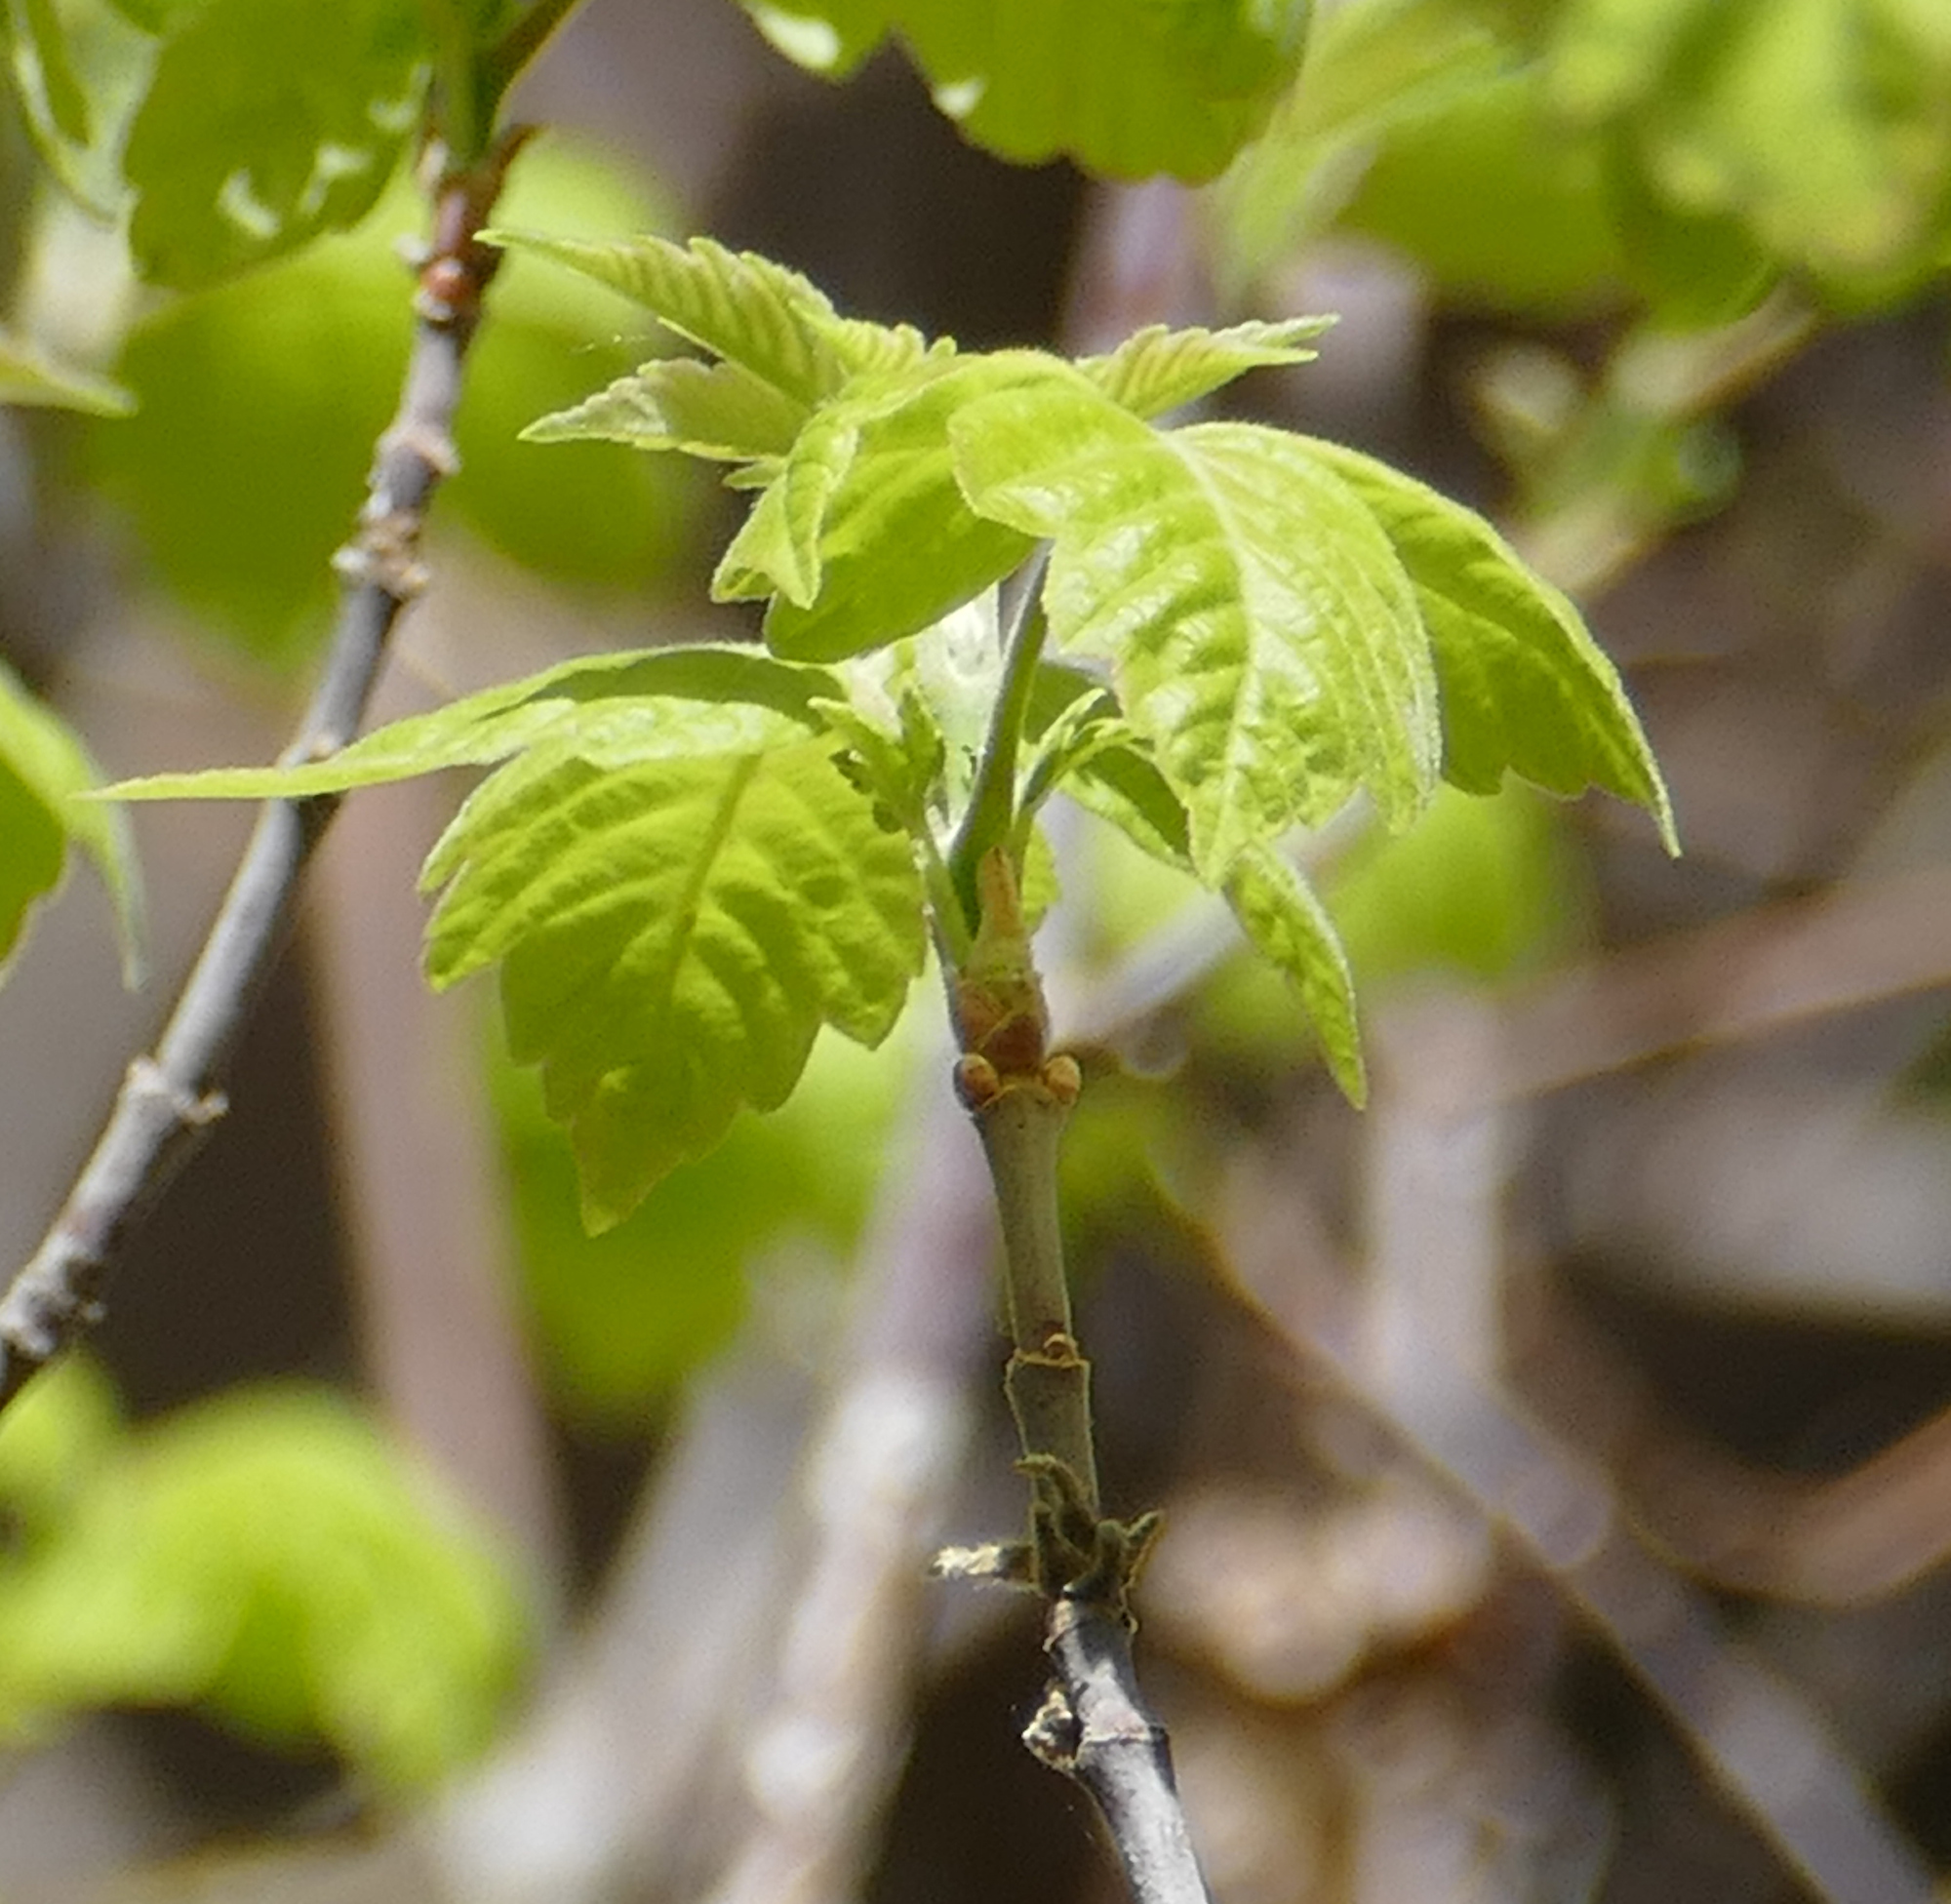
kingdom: Plantae
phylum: Tracheophyta
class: Magnoliopsida
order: Sapindales
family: Sapindaceae
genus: Acer
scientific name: Acer negundo
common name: Ashleaf maple
